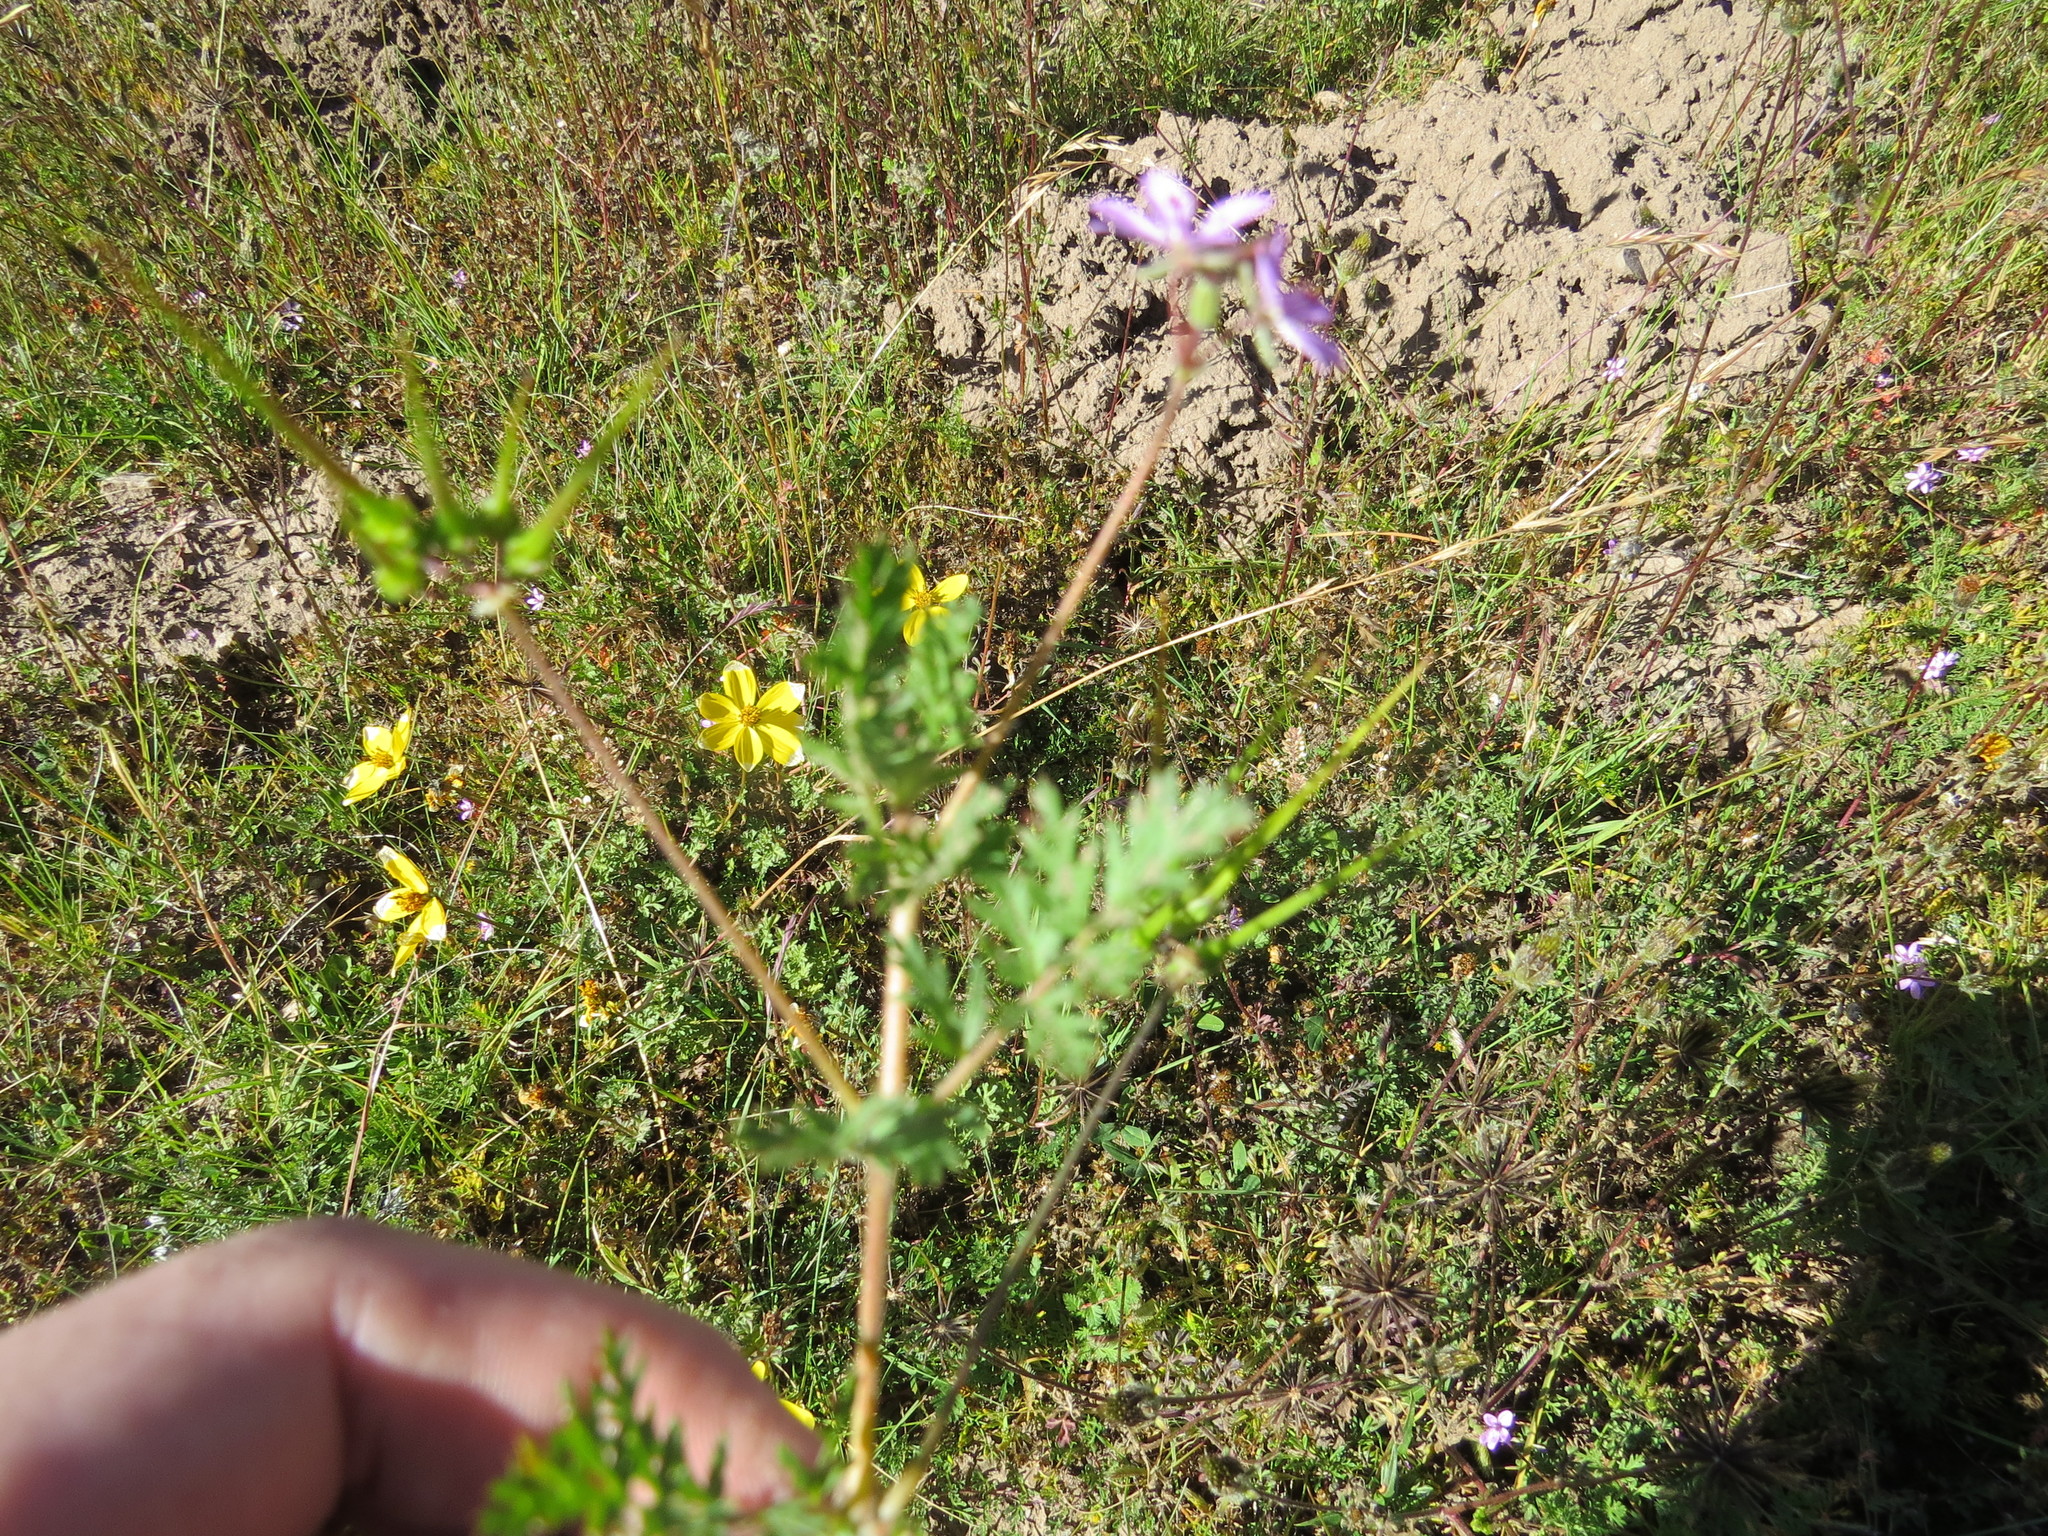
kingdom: Plantae
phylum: Tracheophyta
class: Magnoliopsida
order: Geraniales
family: Geraniaceae
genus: Erodium
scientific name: Erodium cicutarium
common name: Common stork's-bill
